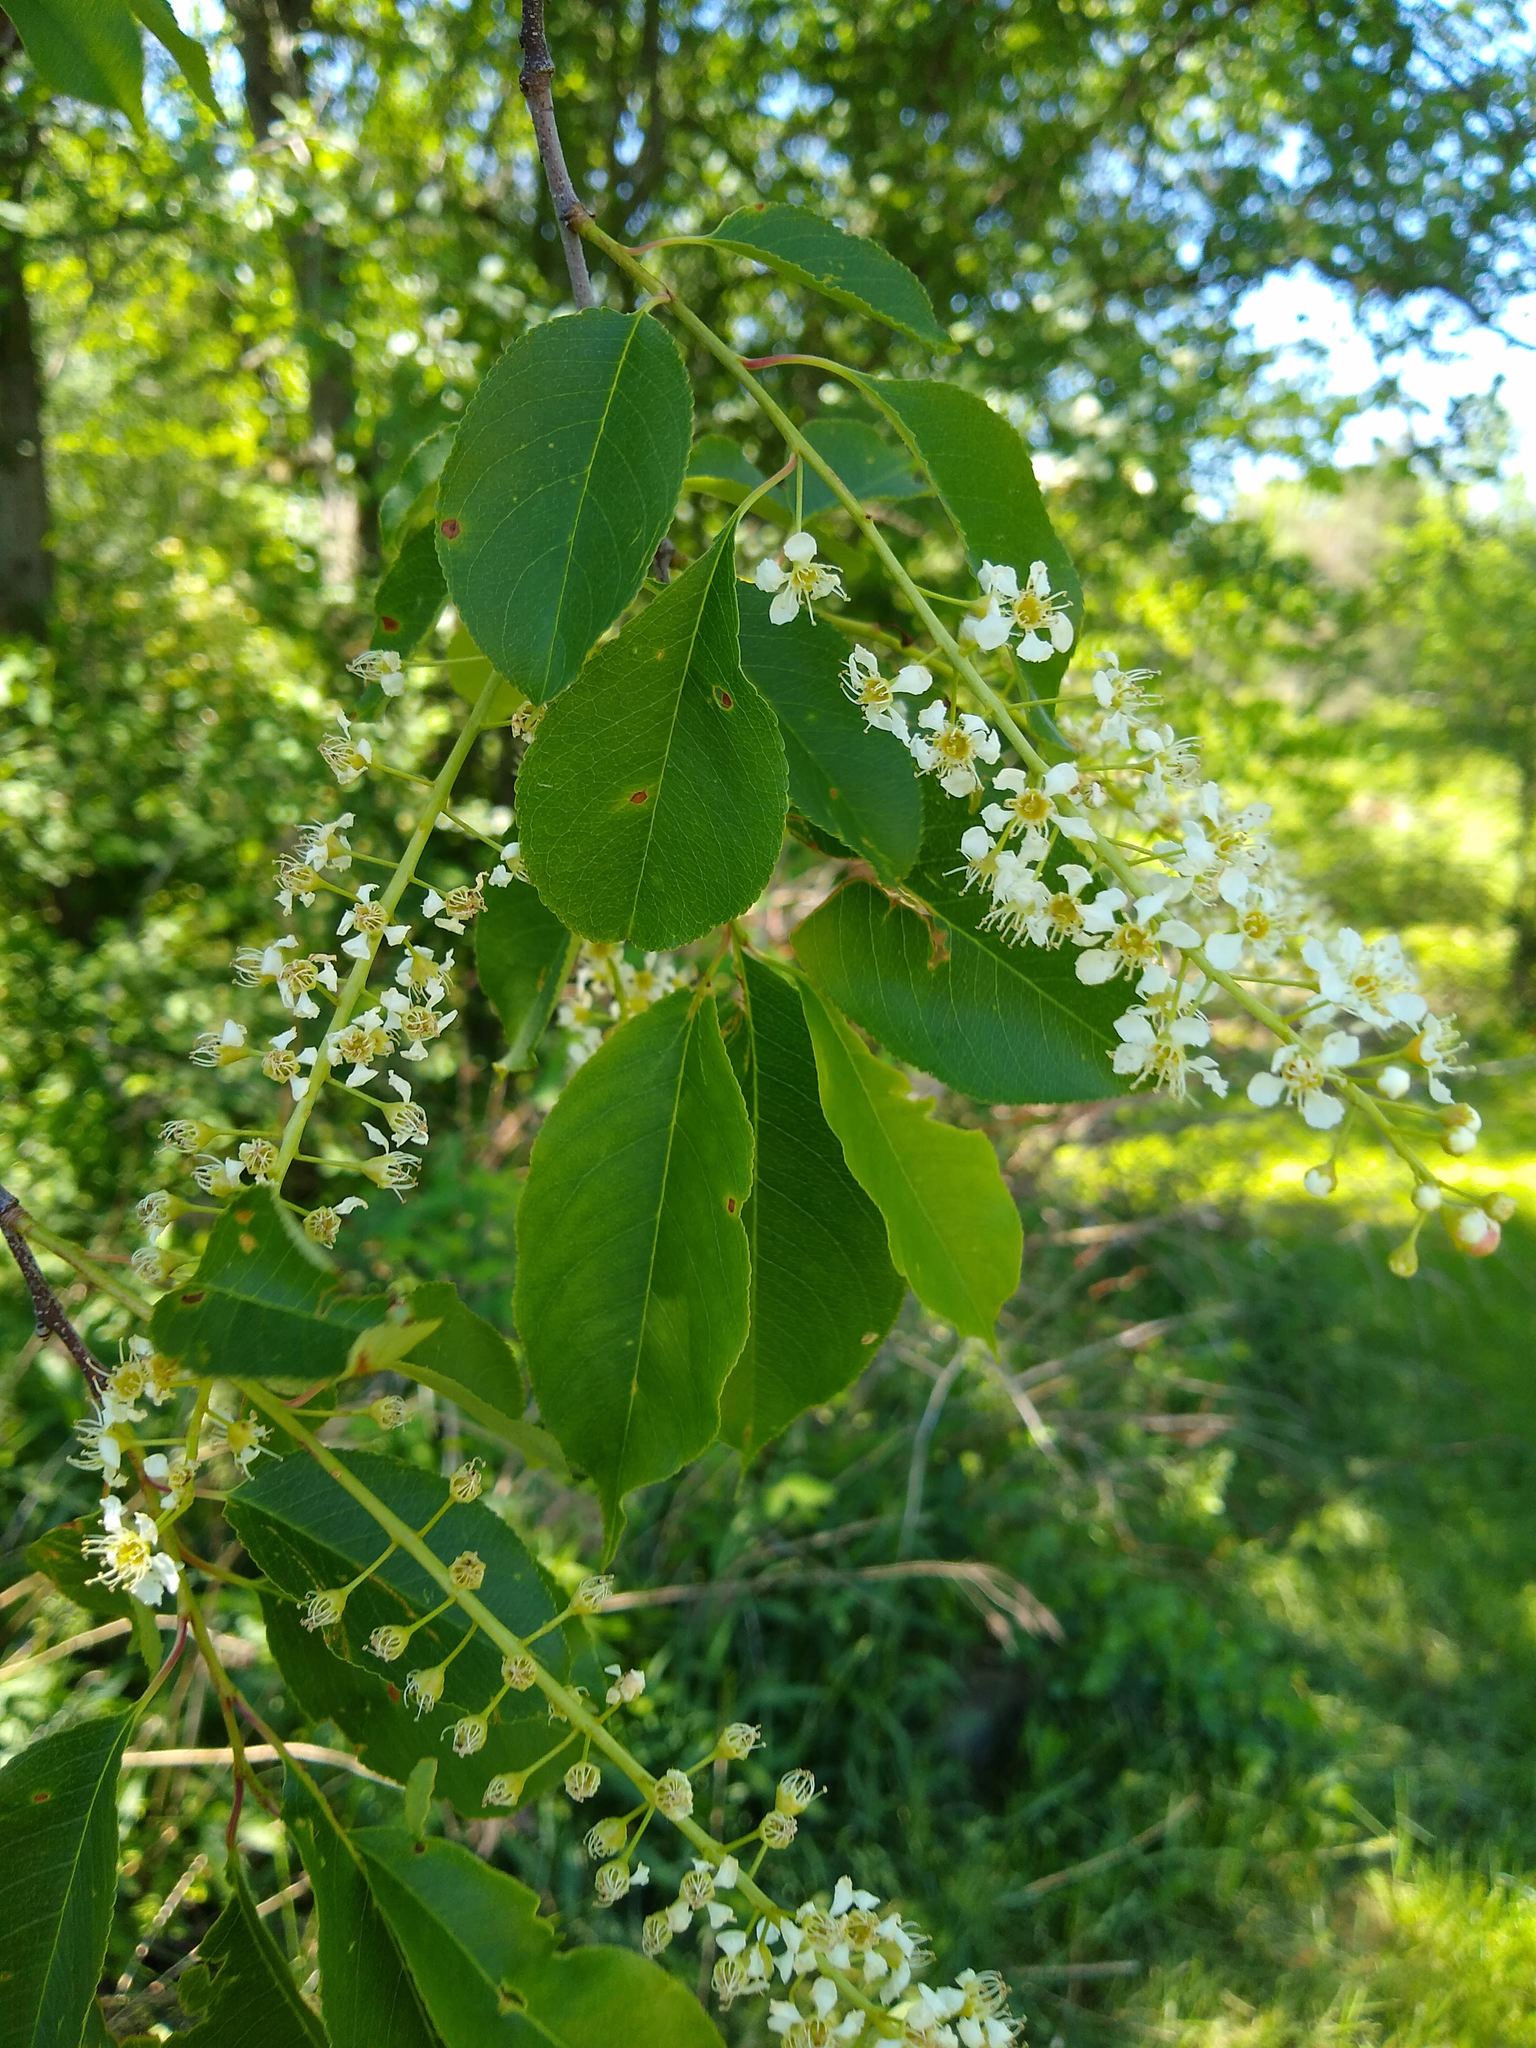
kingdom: Plantae
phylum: Tracheophyta
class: Magnoliopsida
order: Rosales
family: Rosaceae
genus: Prunus
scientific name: Prunus padus
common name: Bird cherry
